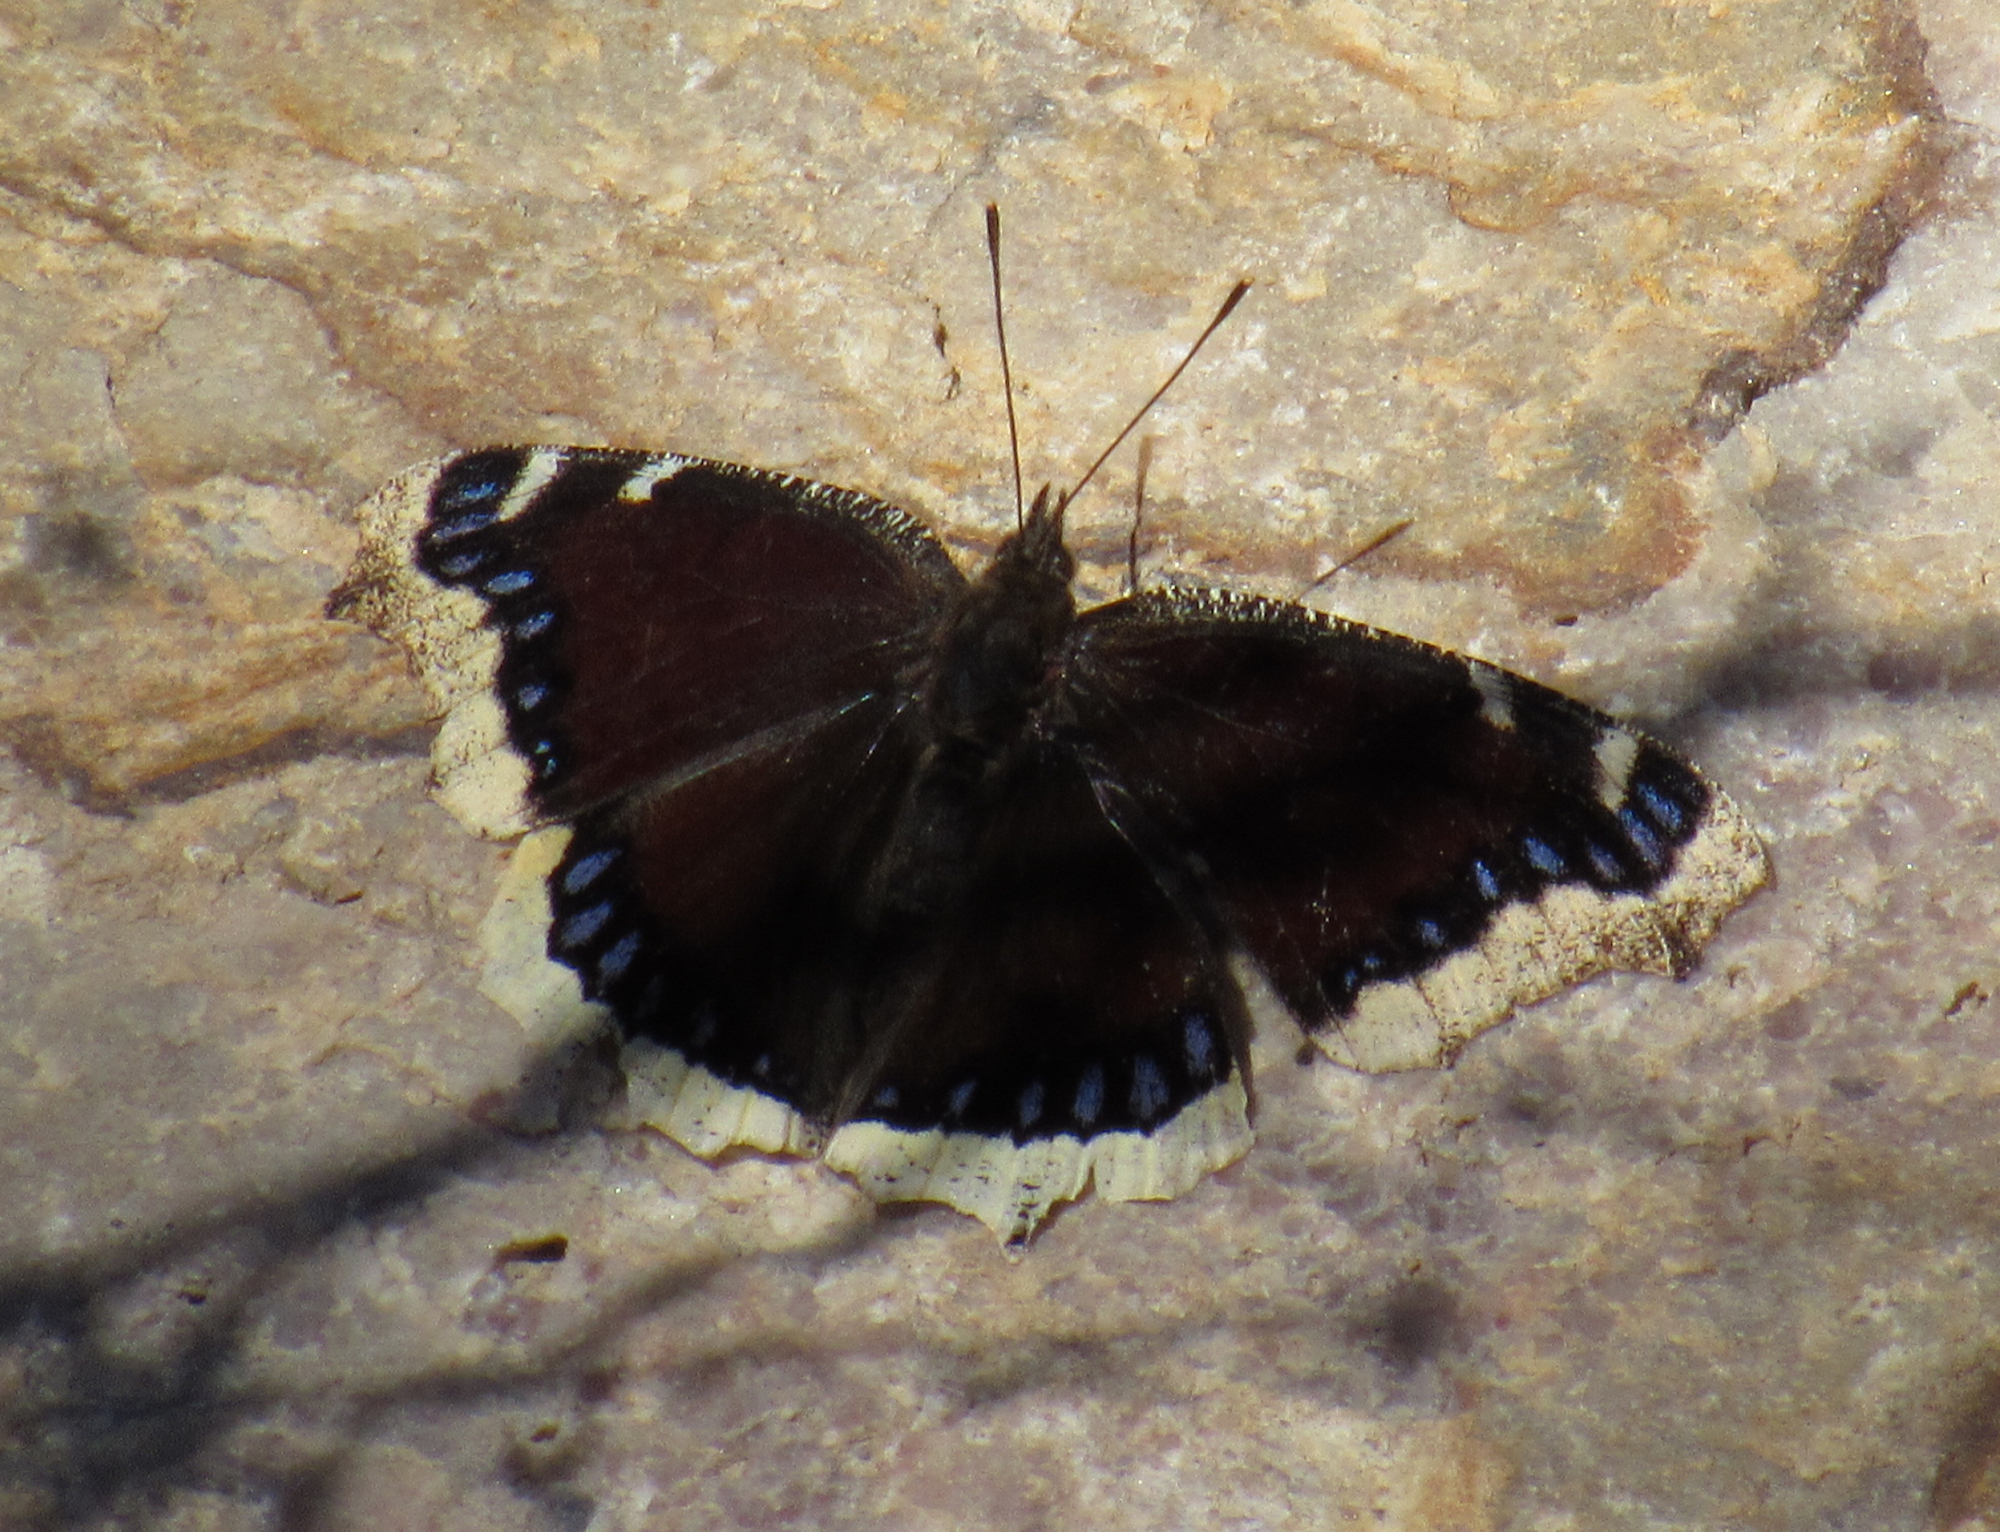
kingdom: Animalia
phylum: Arthropoda
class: Insecta
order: Lepidoptera
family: Nymphalidae
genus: Nymphalis
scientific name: Nymphalis antiopa
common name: Camberwell beauty
